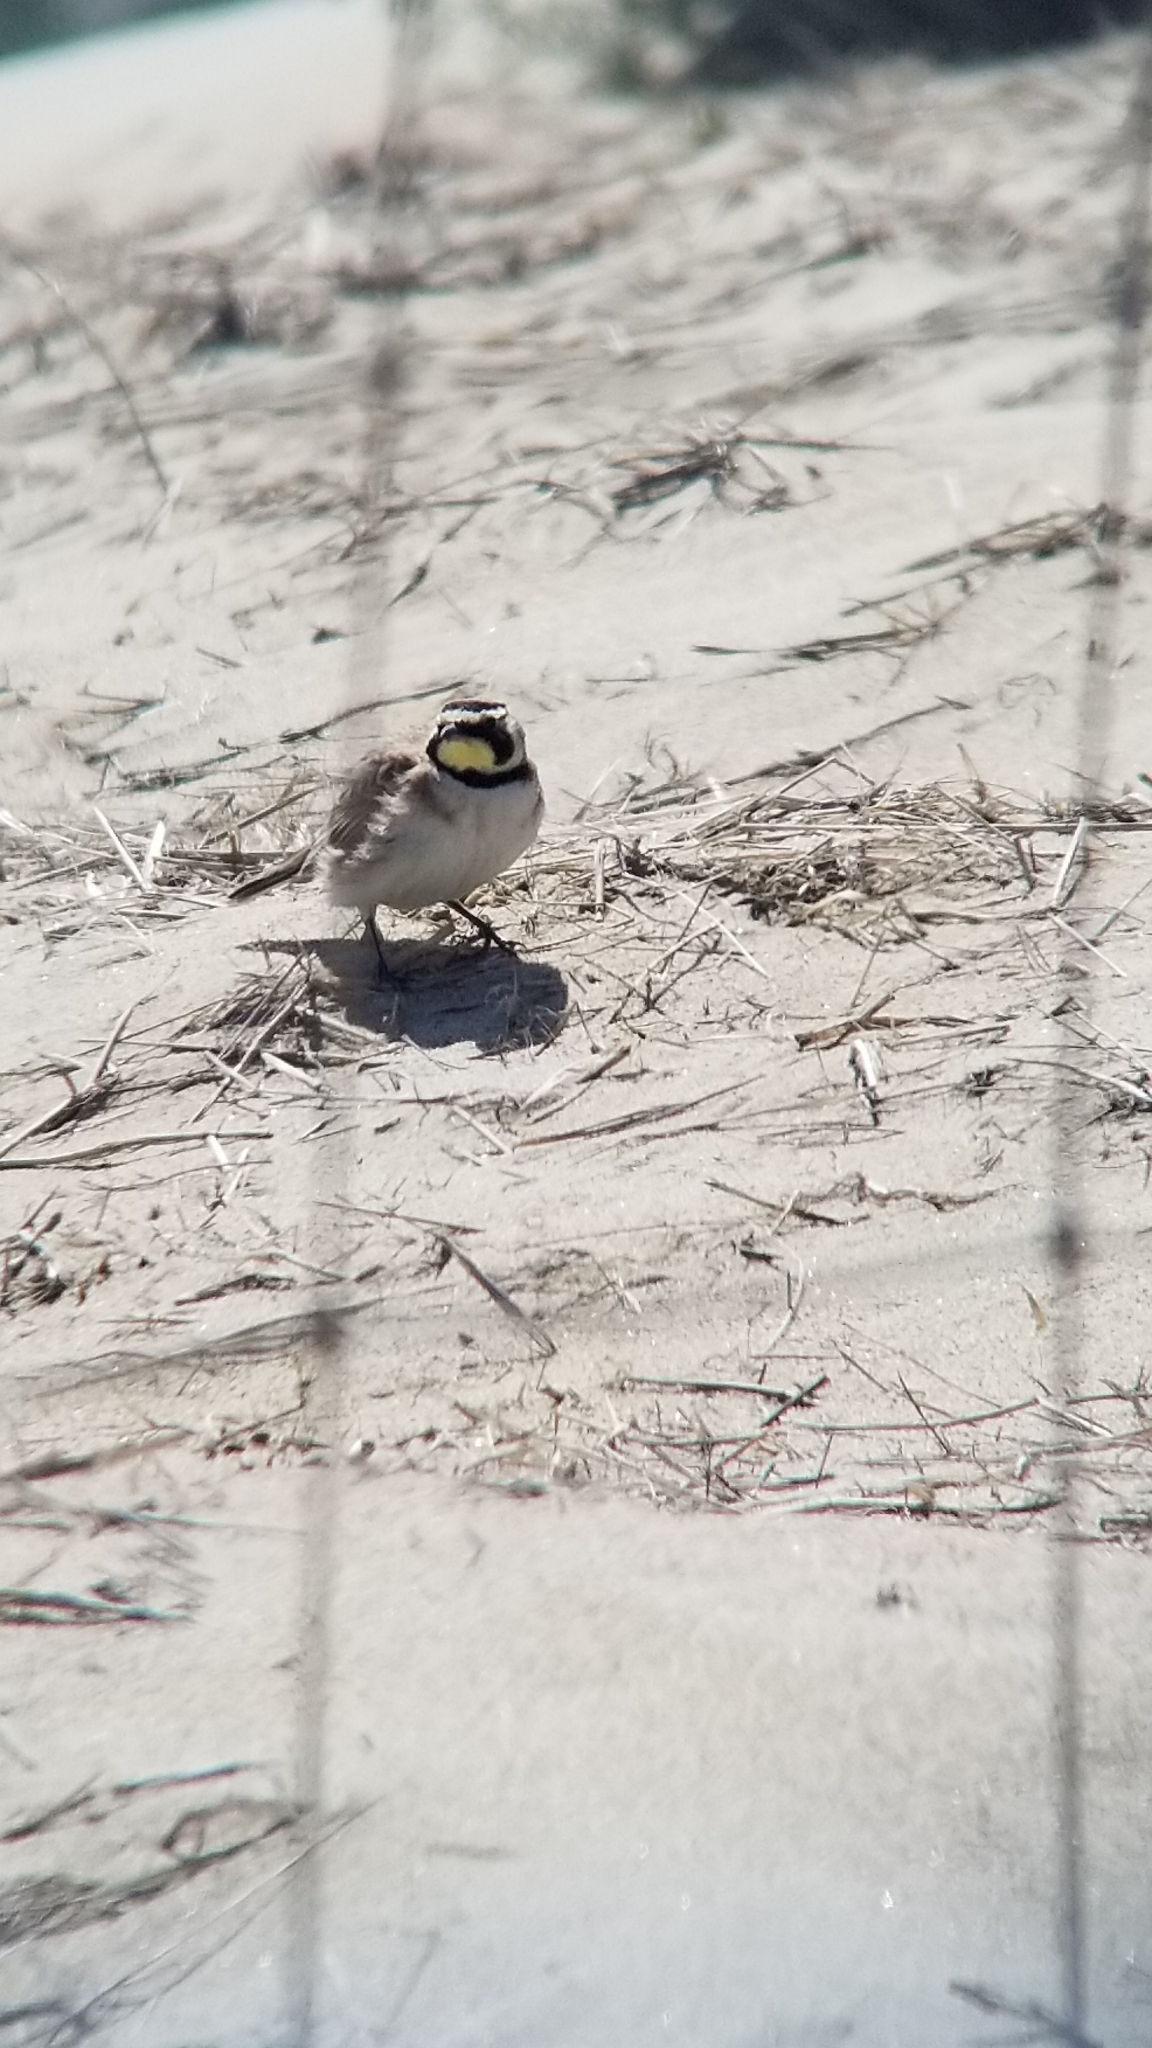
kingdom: Animalia
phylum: Chordata
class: Aves
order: Passeriformes
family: Alaudidae
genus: Eremophila
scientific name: Eremophila alpestris
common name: Horned lark
